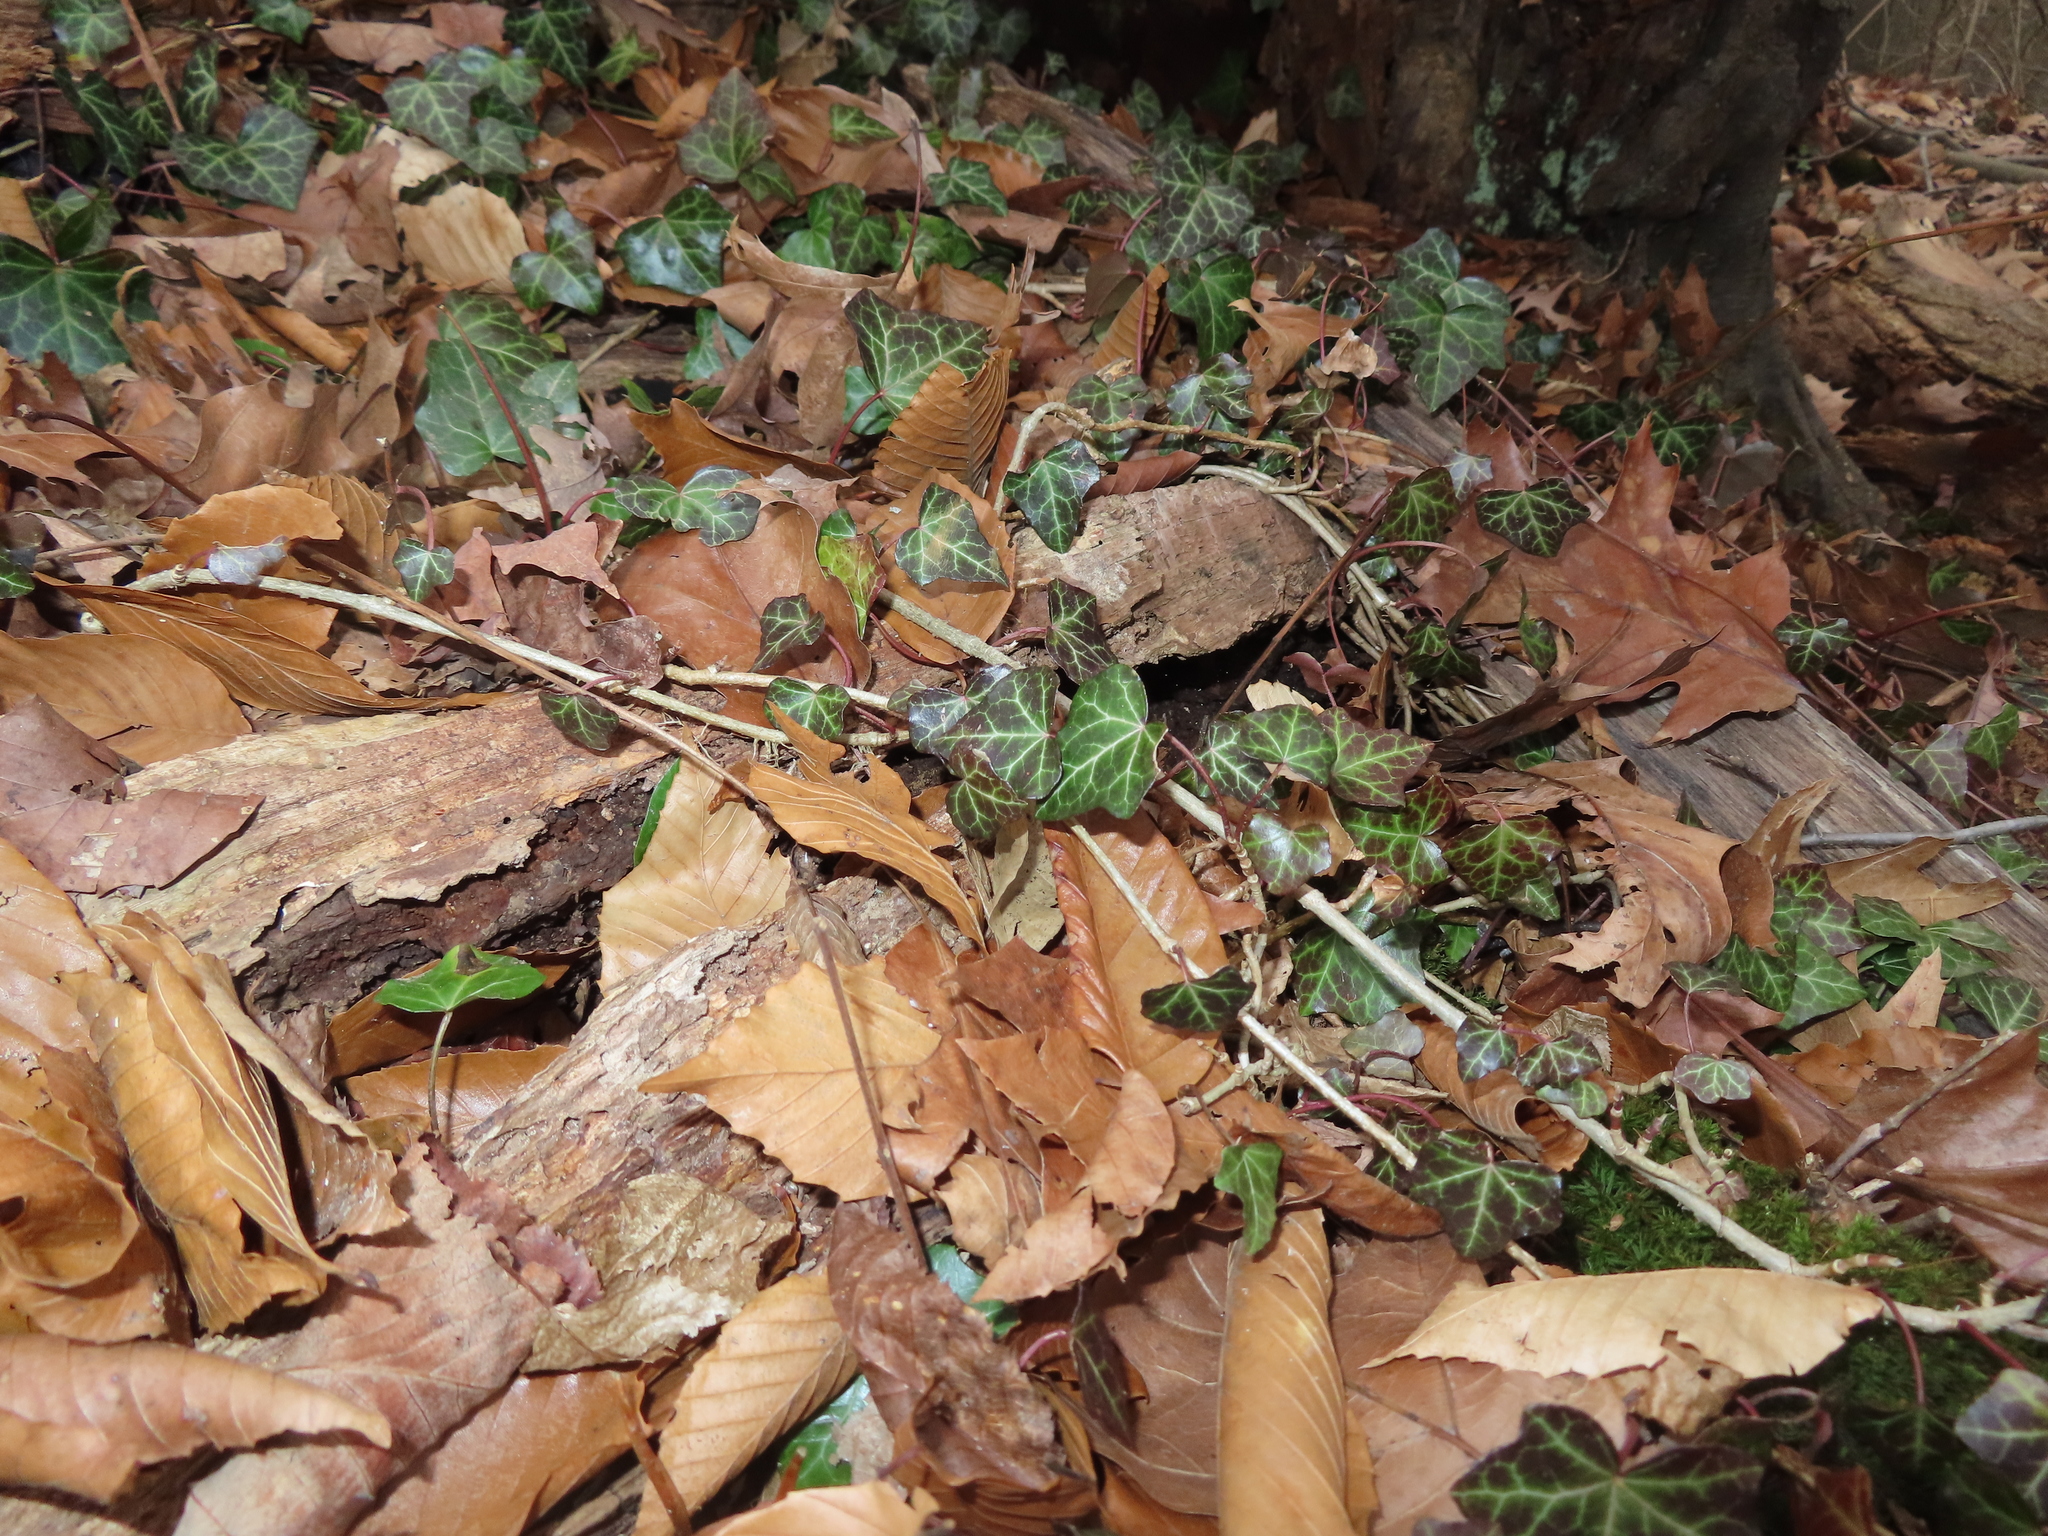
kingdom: Plantae
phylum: Tracheophyta
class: Magnoliopsida
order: Apiales
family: Araliaceae
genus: Hedera
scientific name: Hedera helix
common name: Ivy
